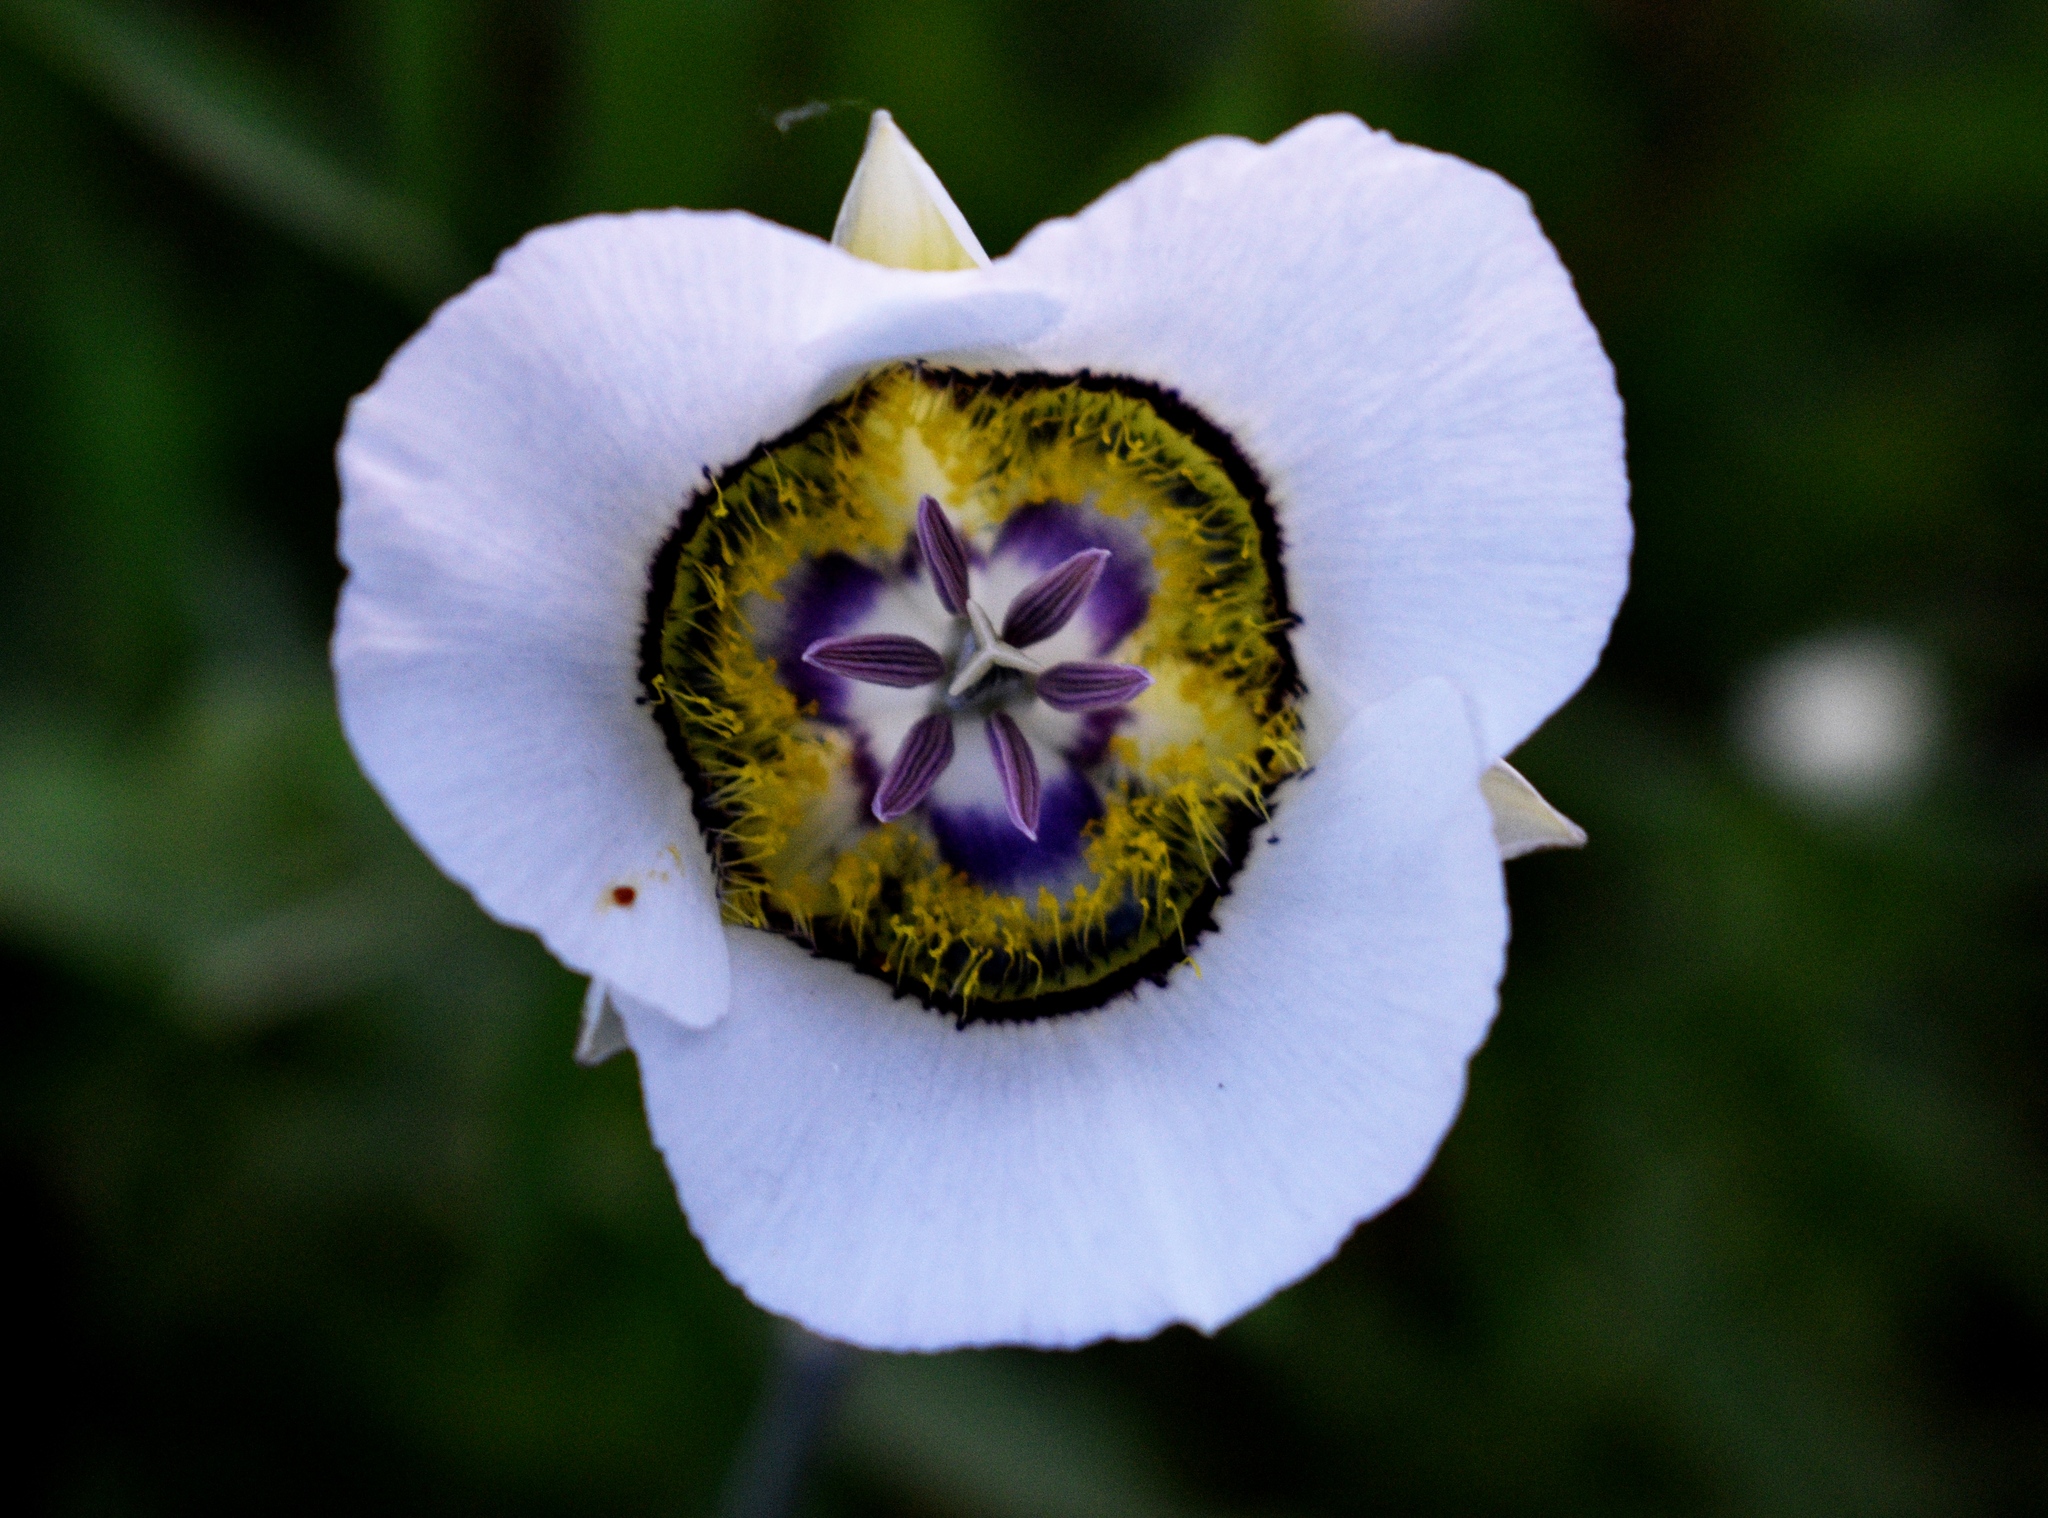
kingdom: Plantae
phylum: Tracheophyta
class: Liliopsida
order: Liliales
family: Liliaceae
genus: Calochortus
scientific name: Calochortus gunnisonii
